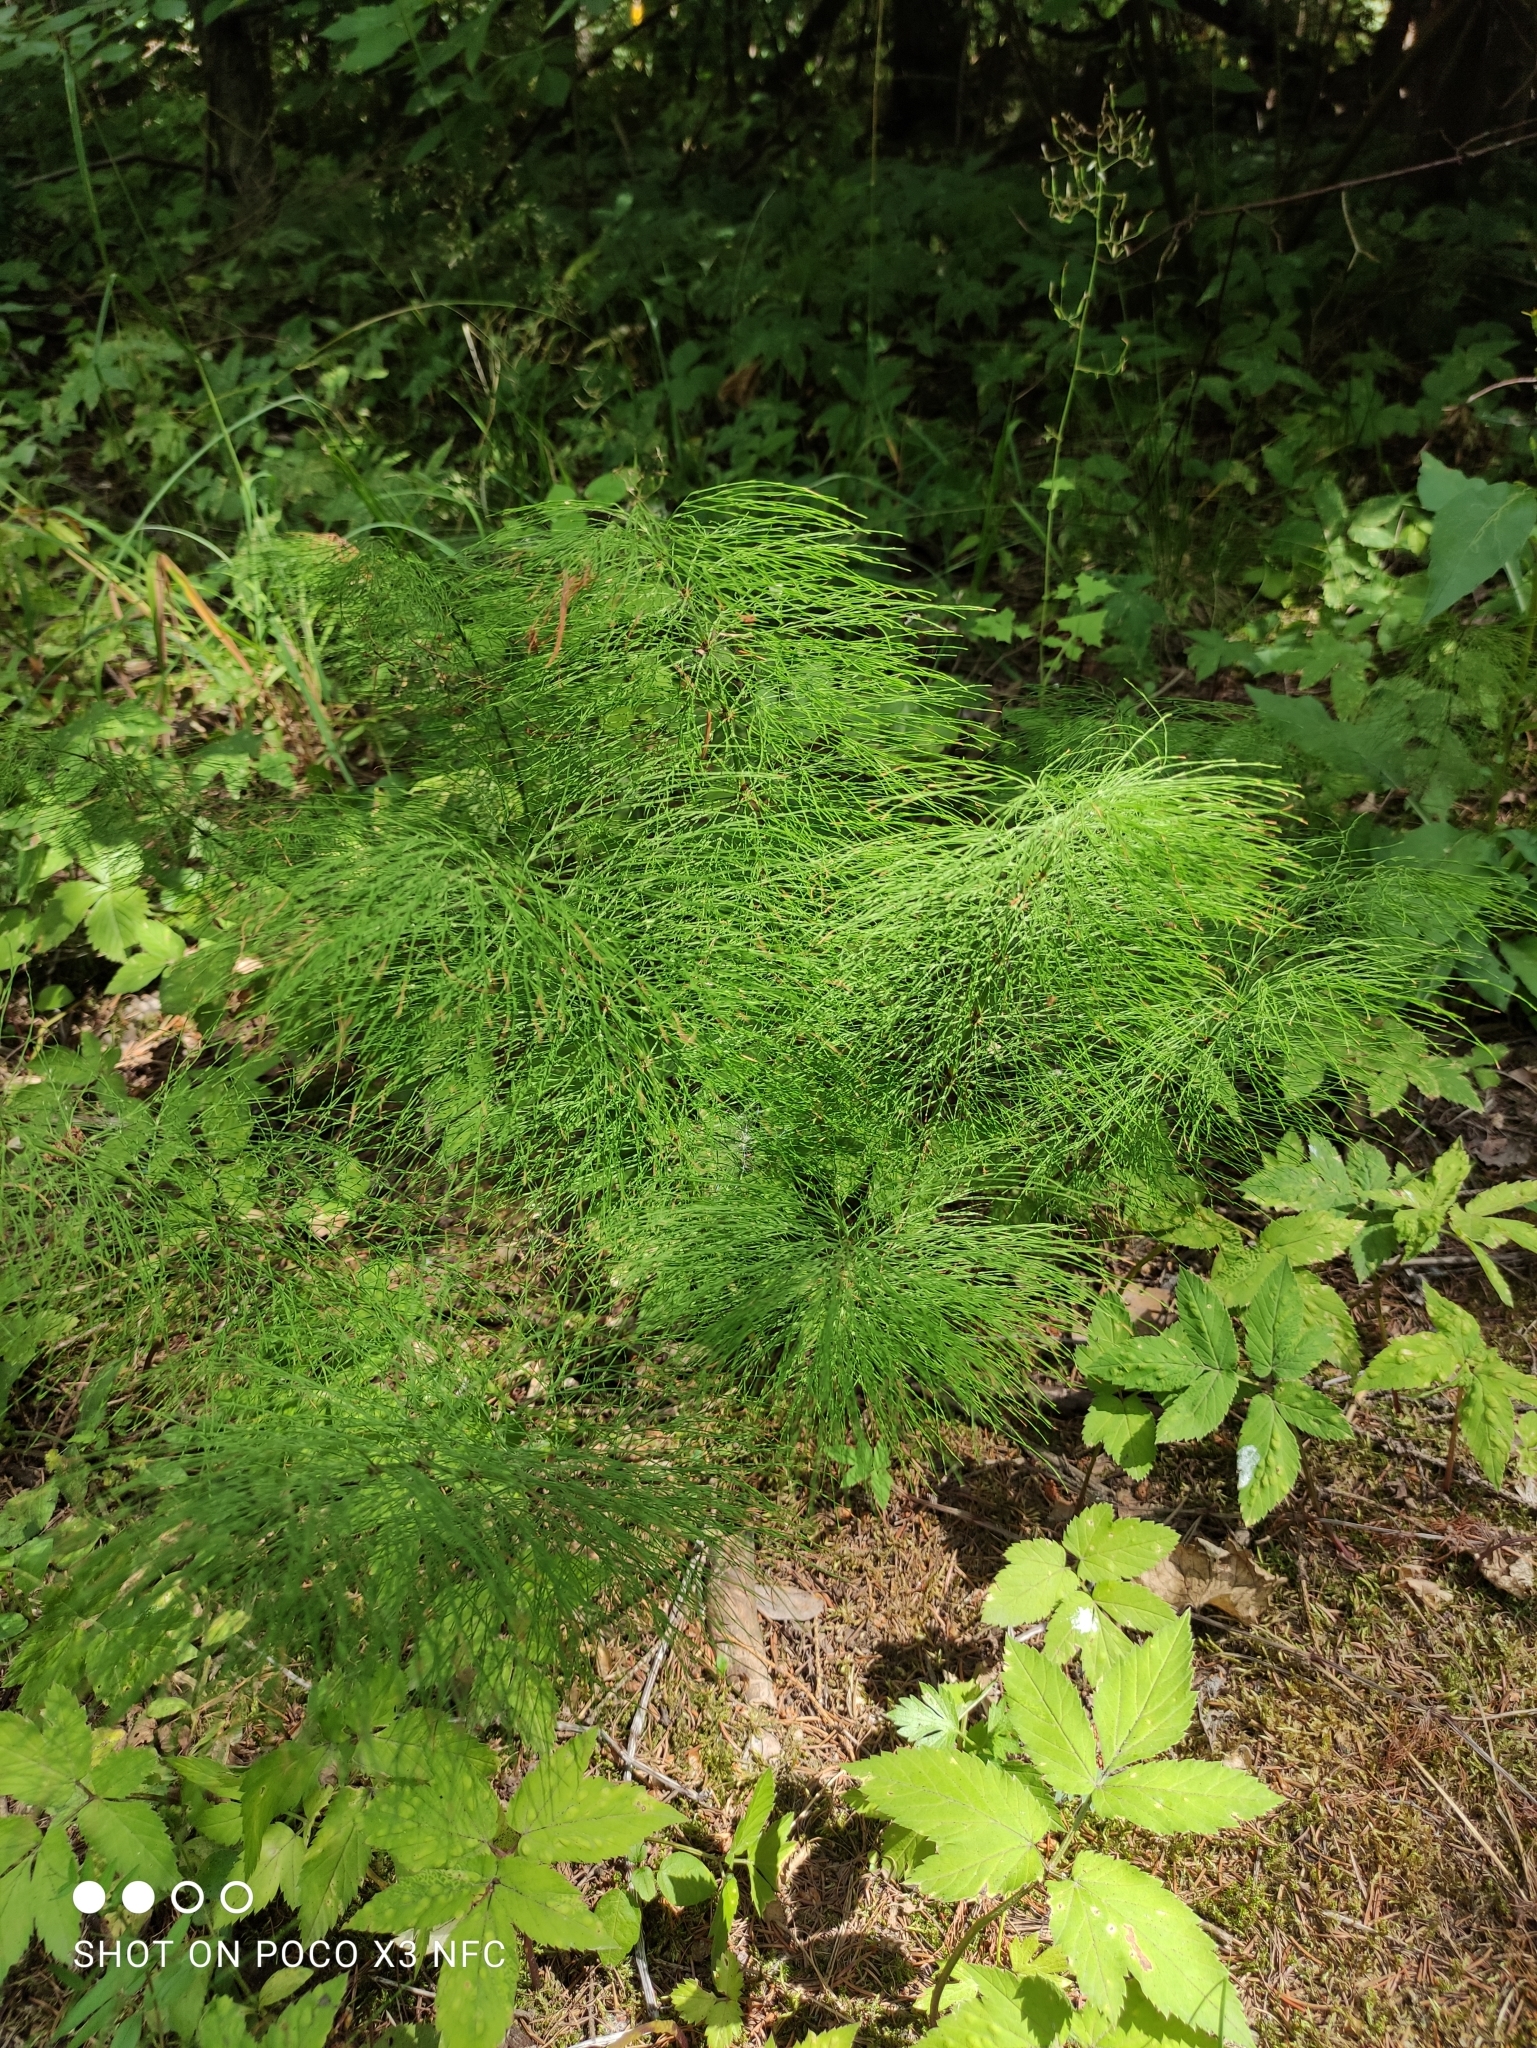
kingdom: Plantae
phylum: Tracheophyta
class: Polypodiopsida
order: Equisetales
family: Equisetaceae
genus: Equisetum
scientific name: Equisetum sylvaticum
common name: Wood horsetail
